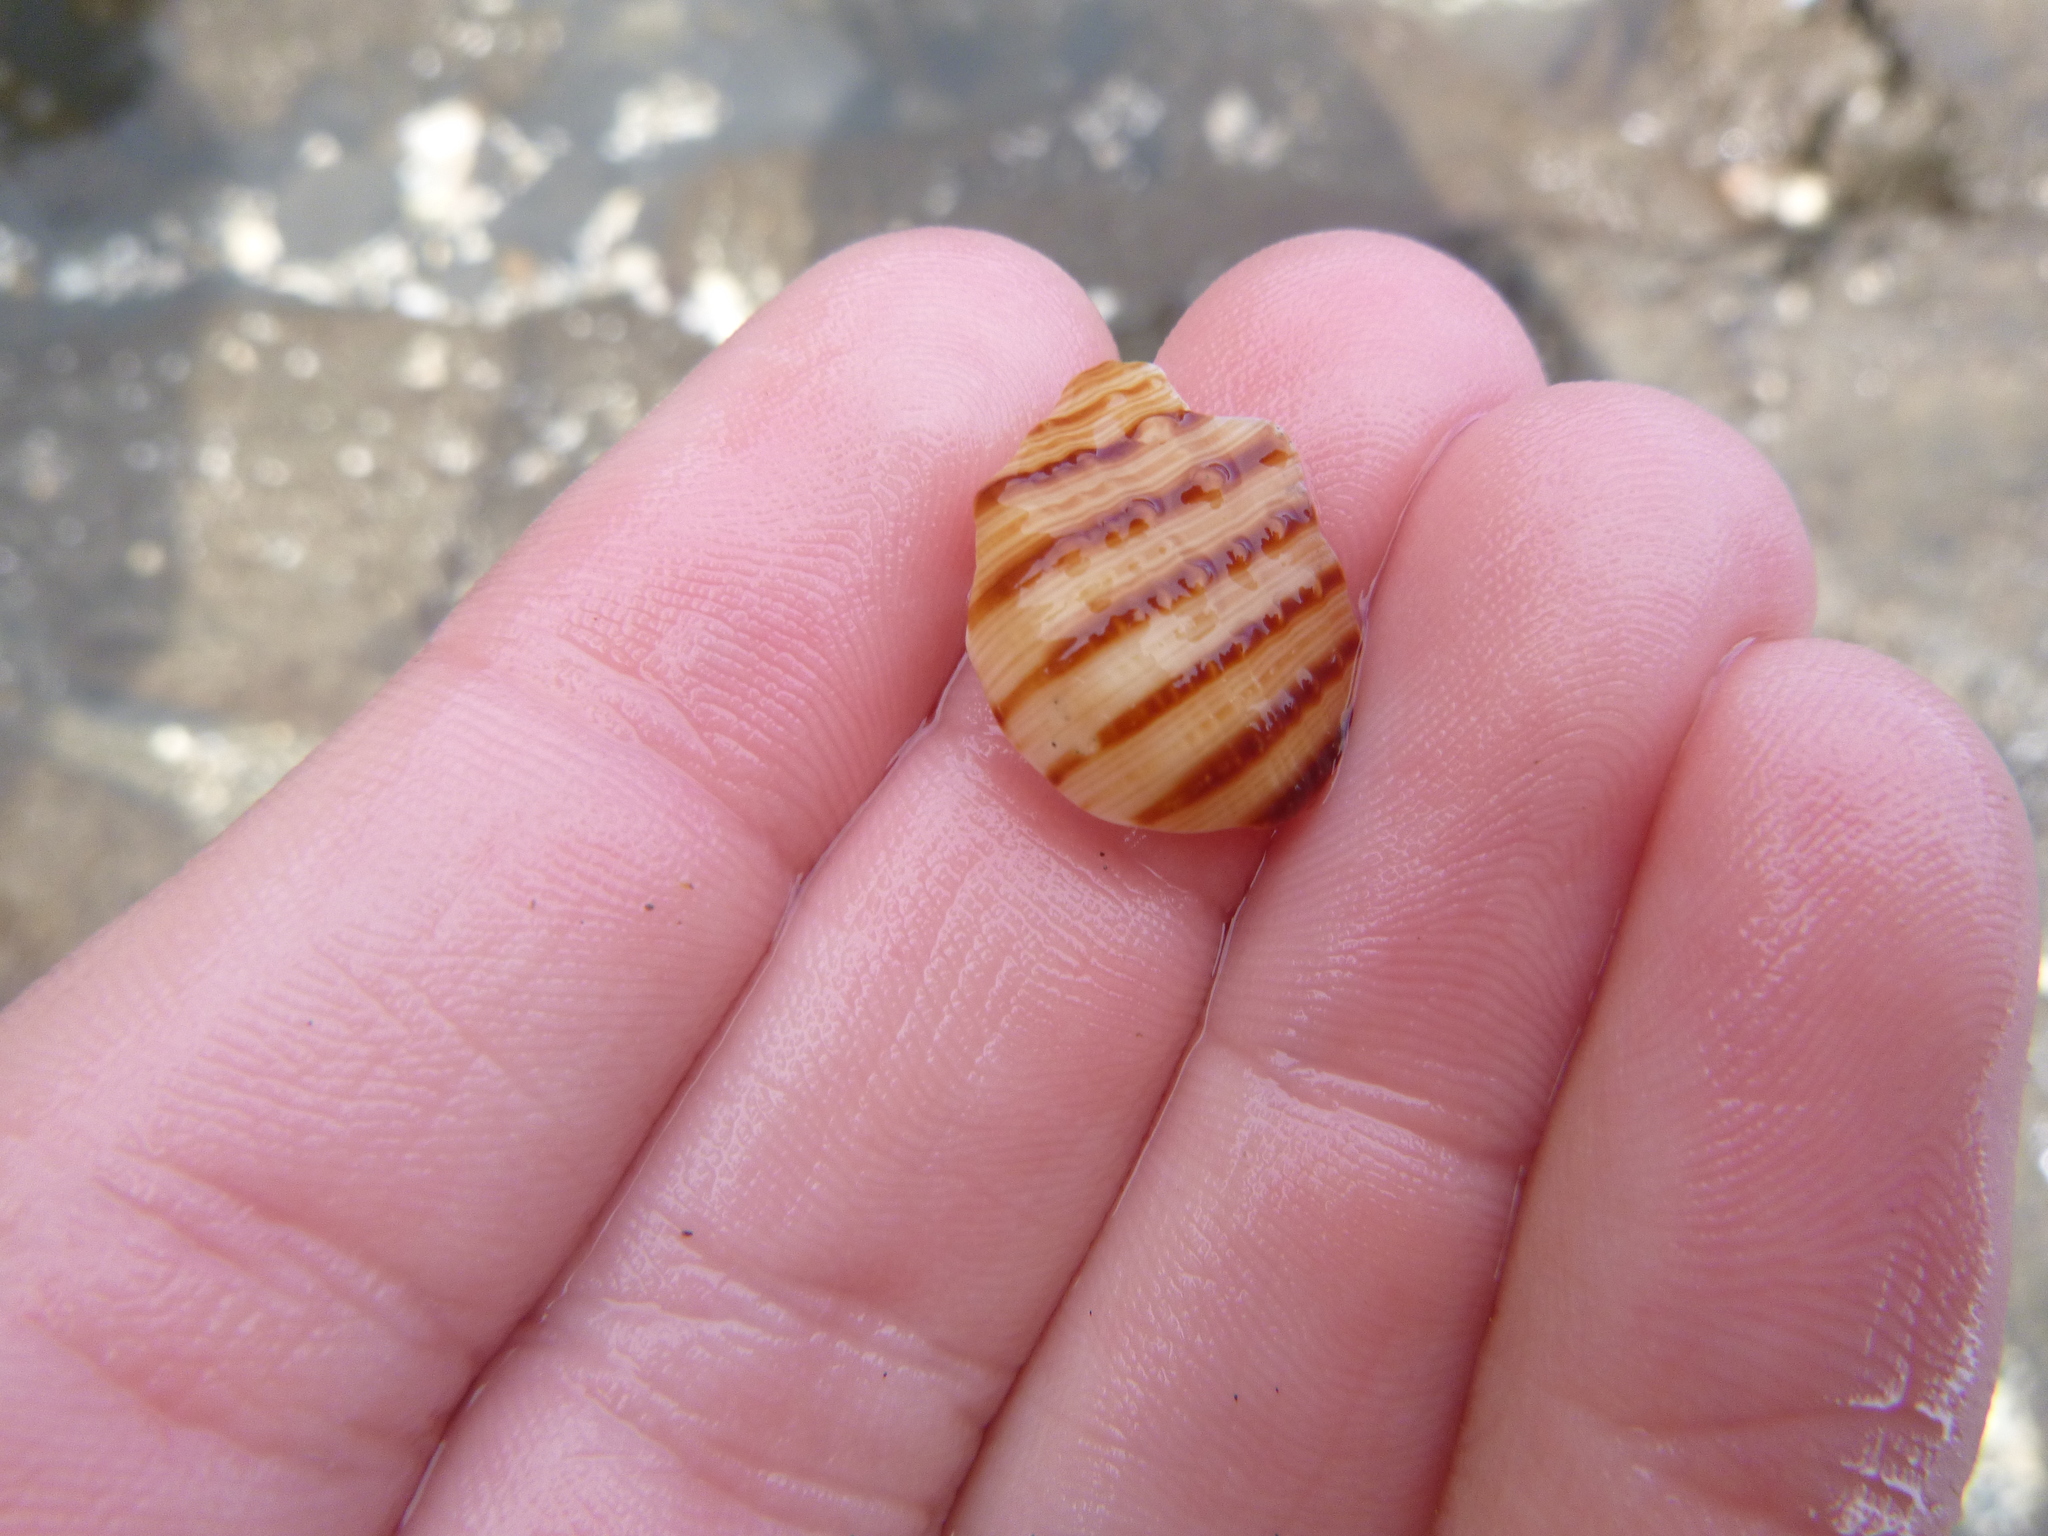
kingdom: Animalia
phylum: Mollusca
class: Gastropoda
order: Littorinimorpha
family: Cymatiidae
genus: Argobuccinum
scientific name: Argobuccinum pustulosum
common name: Pustular triton
